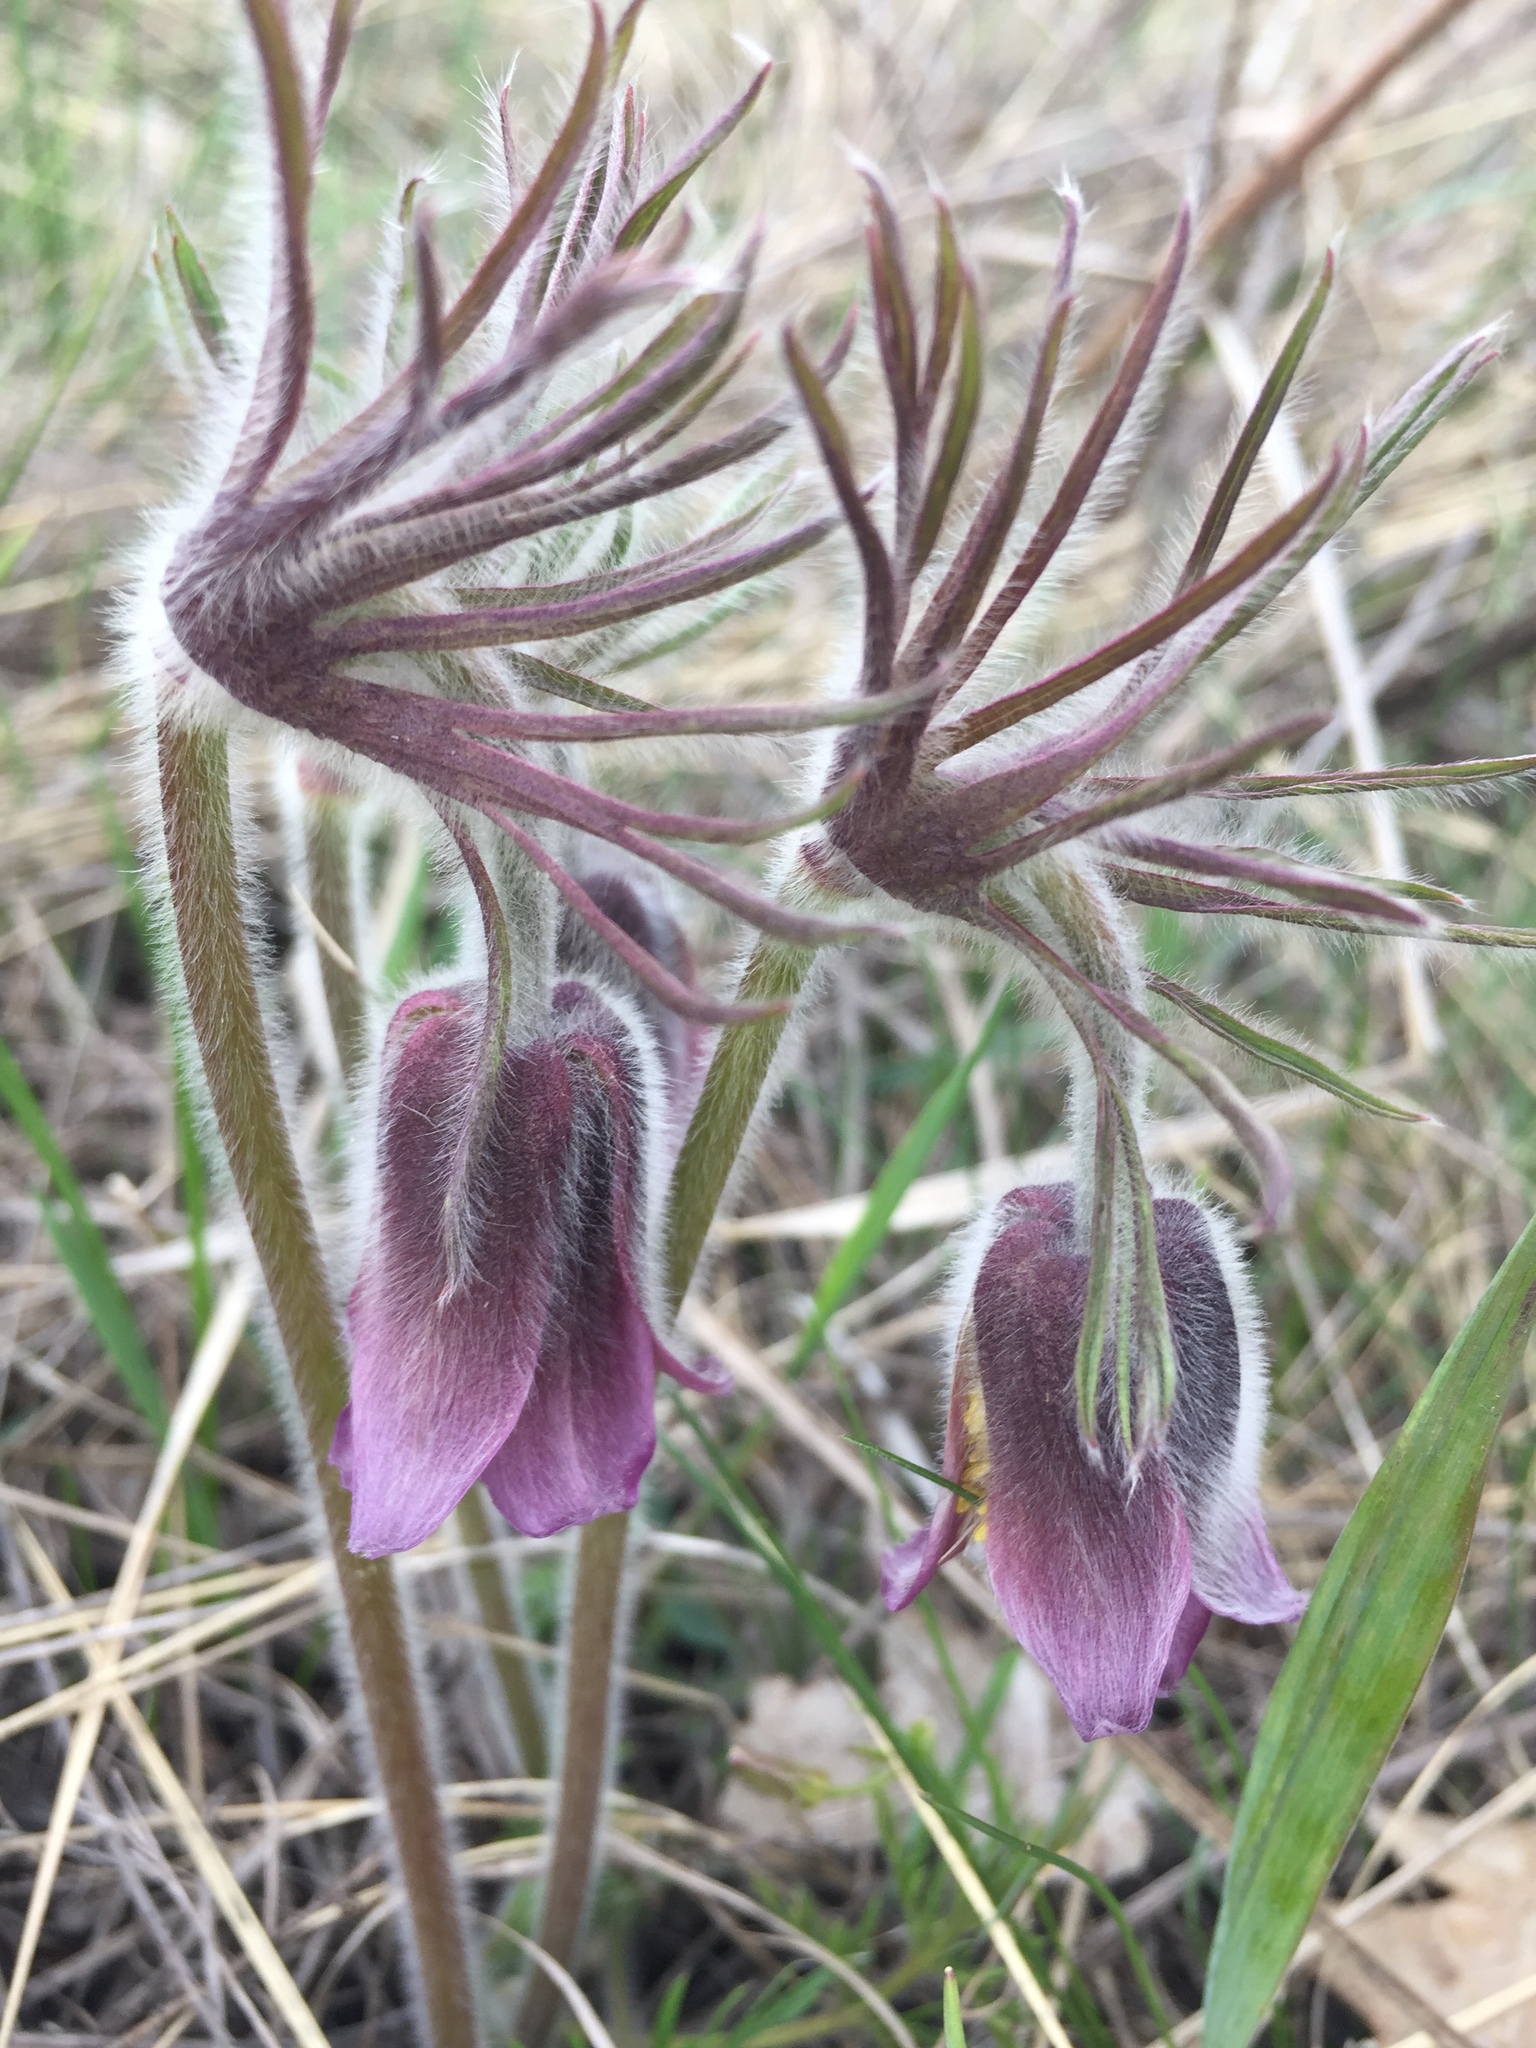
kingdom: Plantae
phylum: Tracheophyta
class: Magnoliopsida
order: Ranunculales
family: Ranunculaceae
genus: Pulsatilla
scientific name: Pulsatilla pratensis
